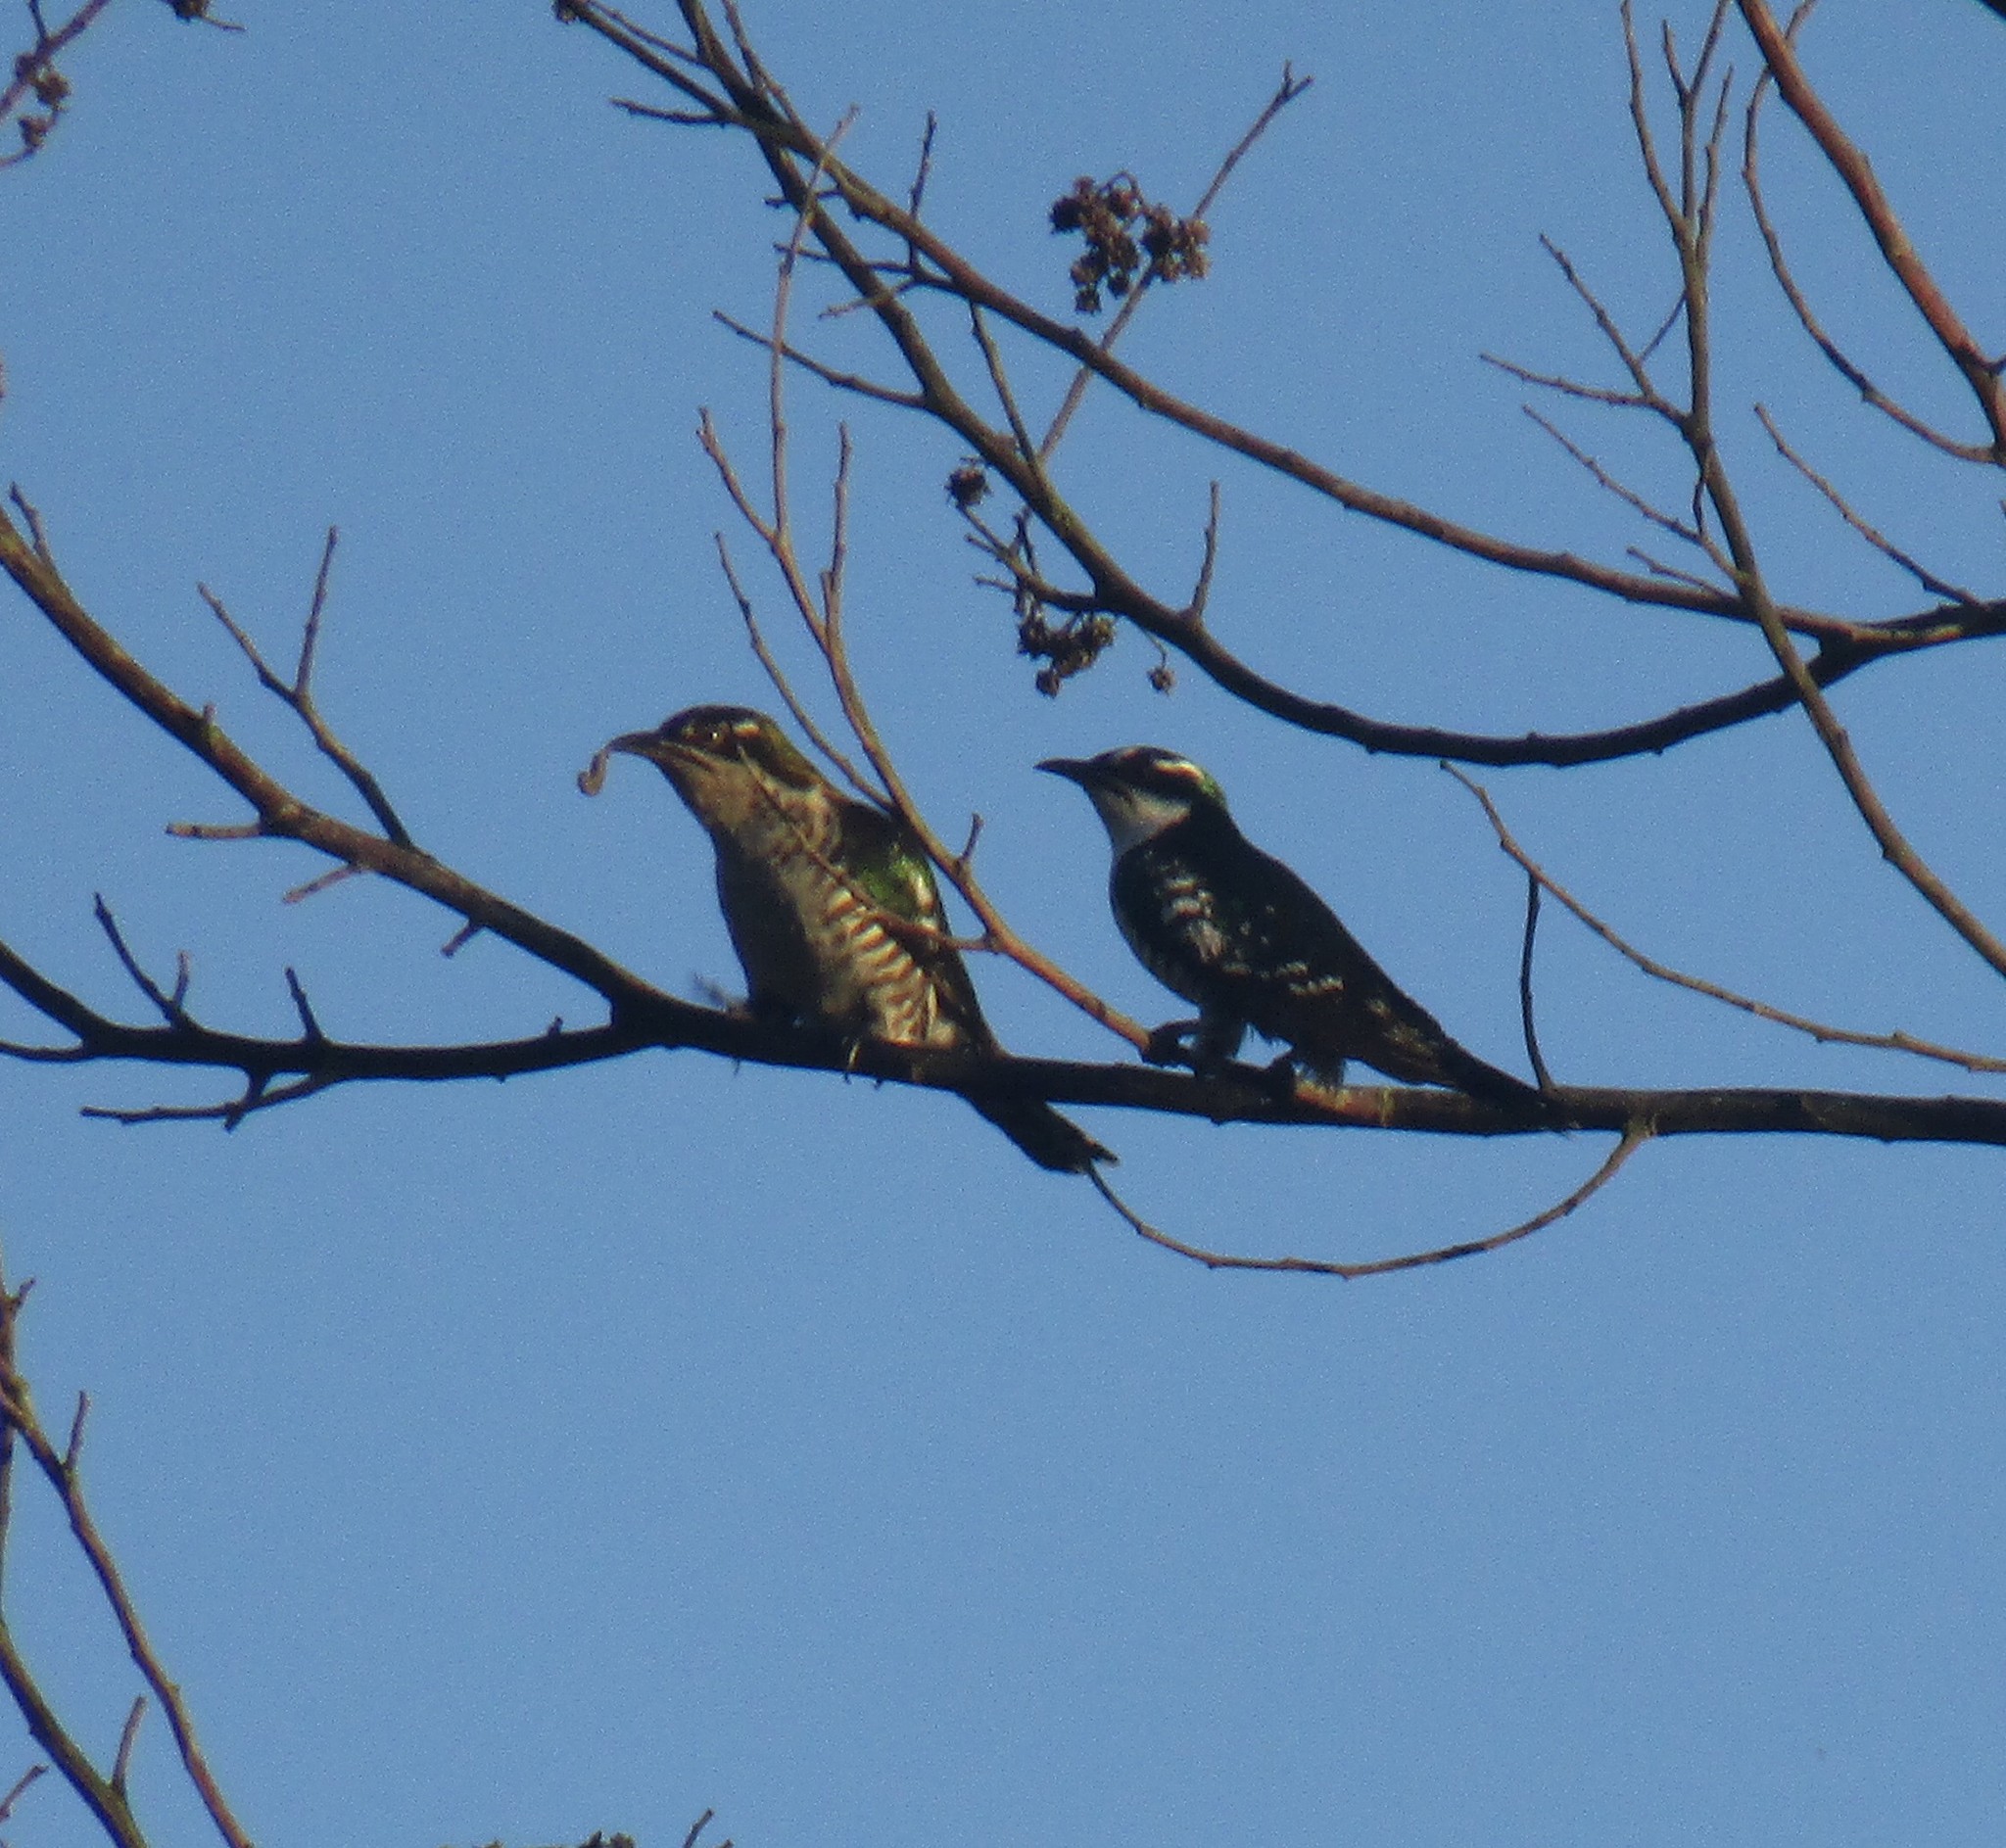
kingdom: Animalia
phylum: Chordata
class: Aves
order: Cuculiformes
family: Cuculidae
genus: Chrysococcyx
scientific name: Chrysococcyx caprius
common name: Diederik cuckoo
